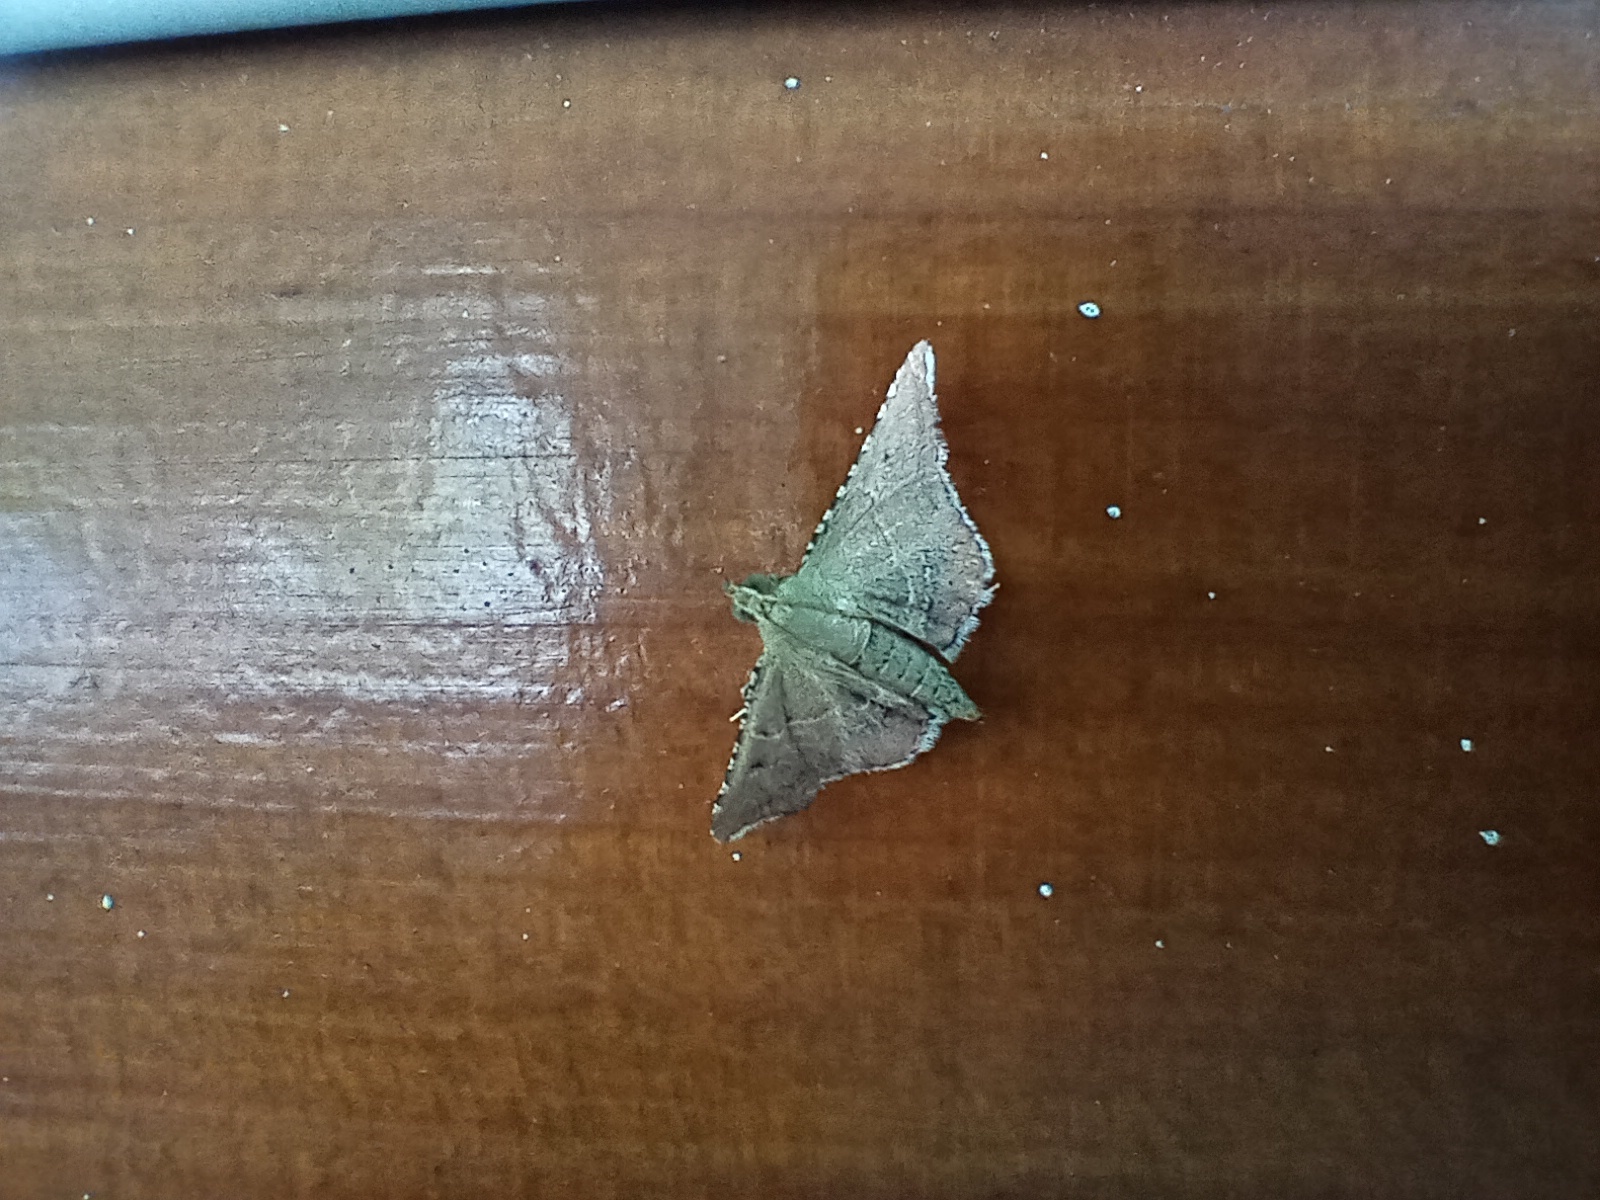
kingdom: Animalia
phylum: Arthropoda
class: Insecta
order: Lepidoptera
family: Pyralidae
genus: Endotricha
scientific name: Endotricha flammealis
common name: Rosy tabby
